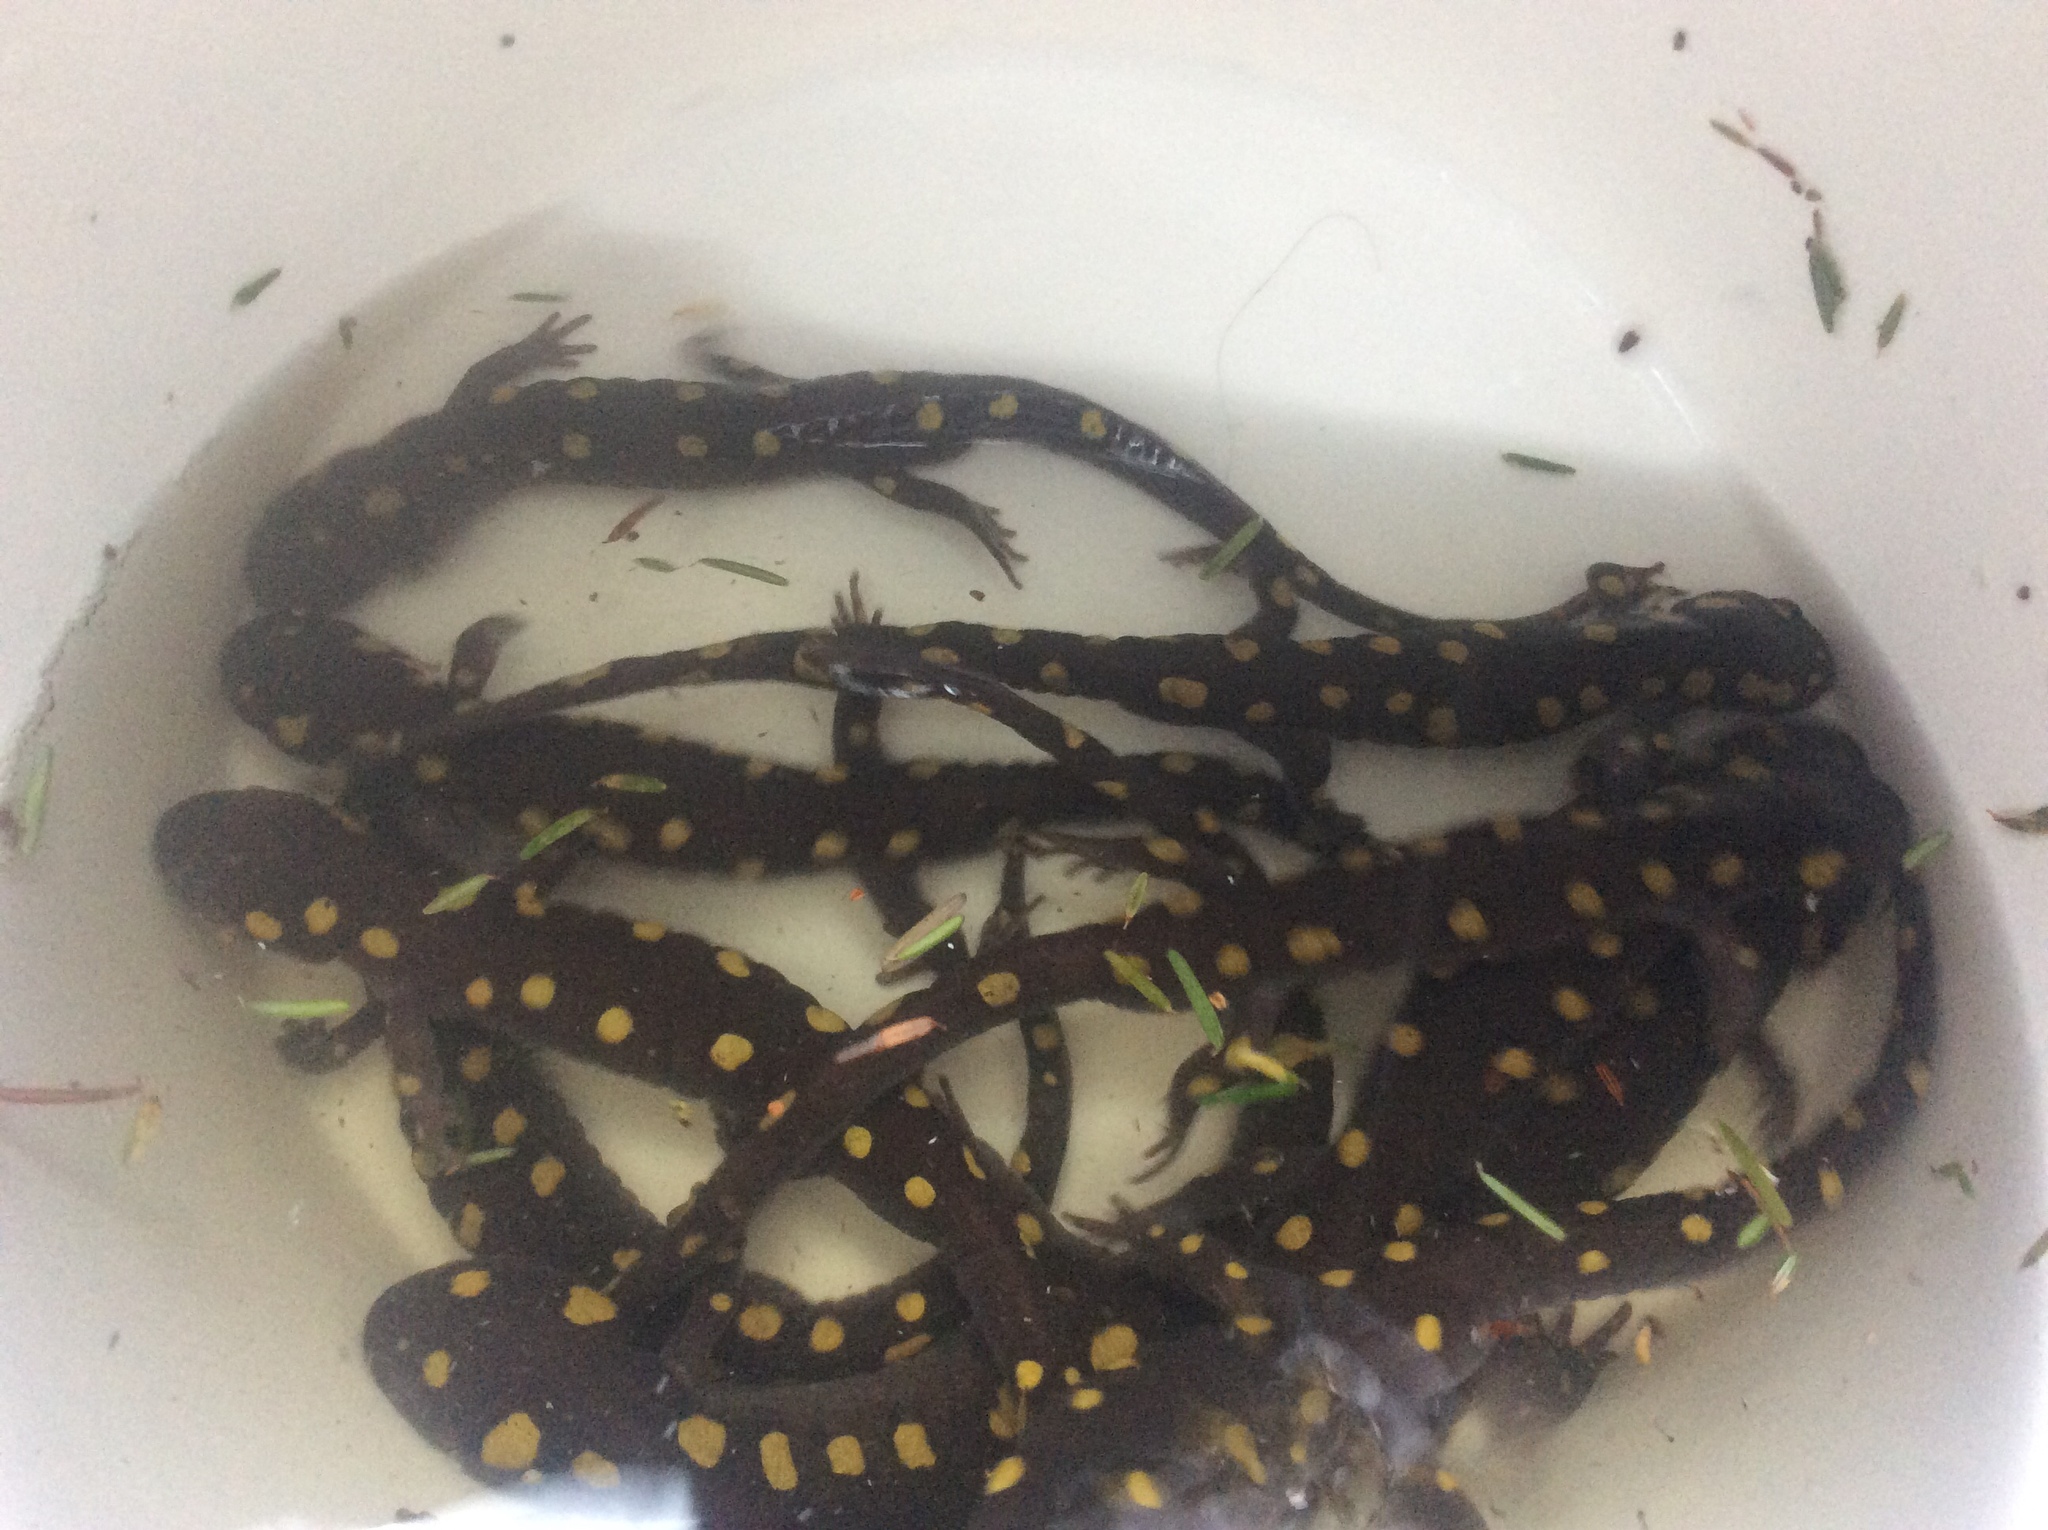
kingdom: Animalia
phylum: Chordata
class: Amphibia
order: Caudata
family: Ambystomatidae
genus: Ambystoma
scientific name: Ambystoma maculatum
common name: Spotted salamander
